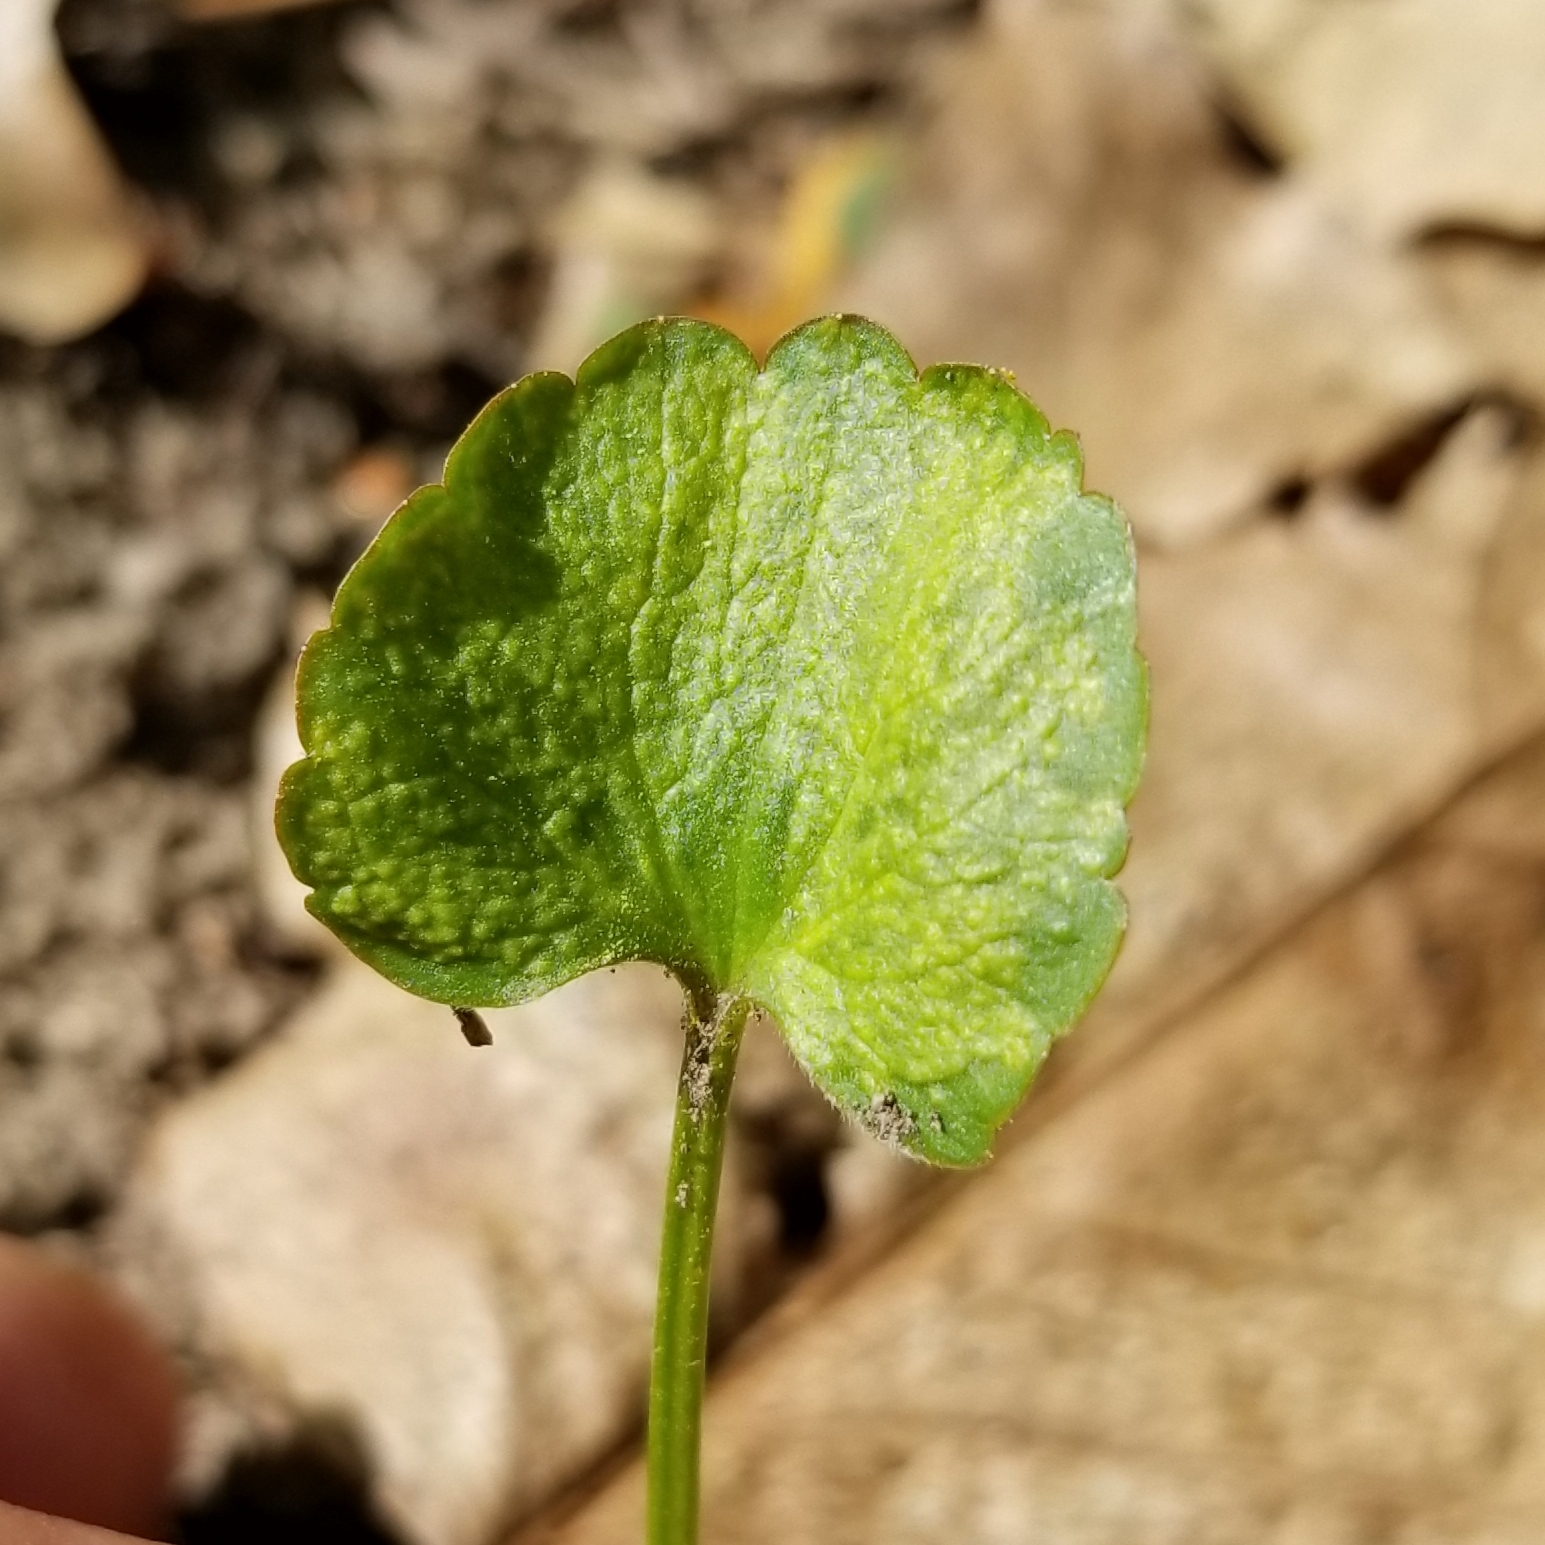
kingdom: Fungi
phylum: Basidiomycota
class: Pucciniomycetes
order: Pucciniales
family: Pucciniaceae
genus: Puccinia
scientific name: Puccinia eatoniae
